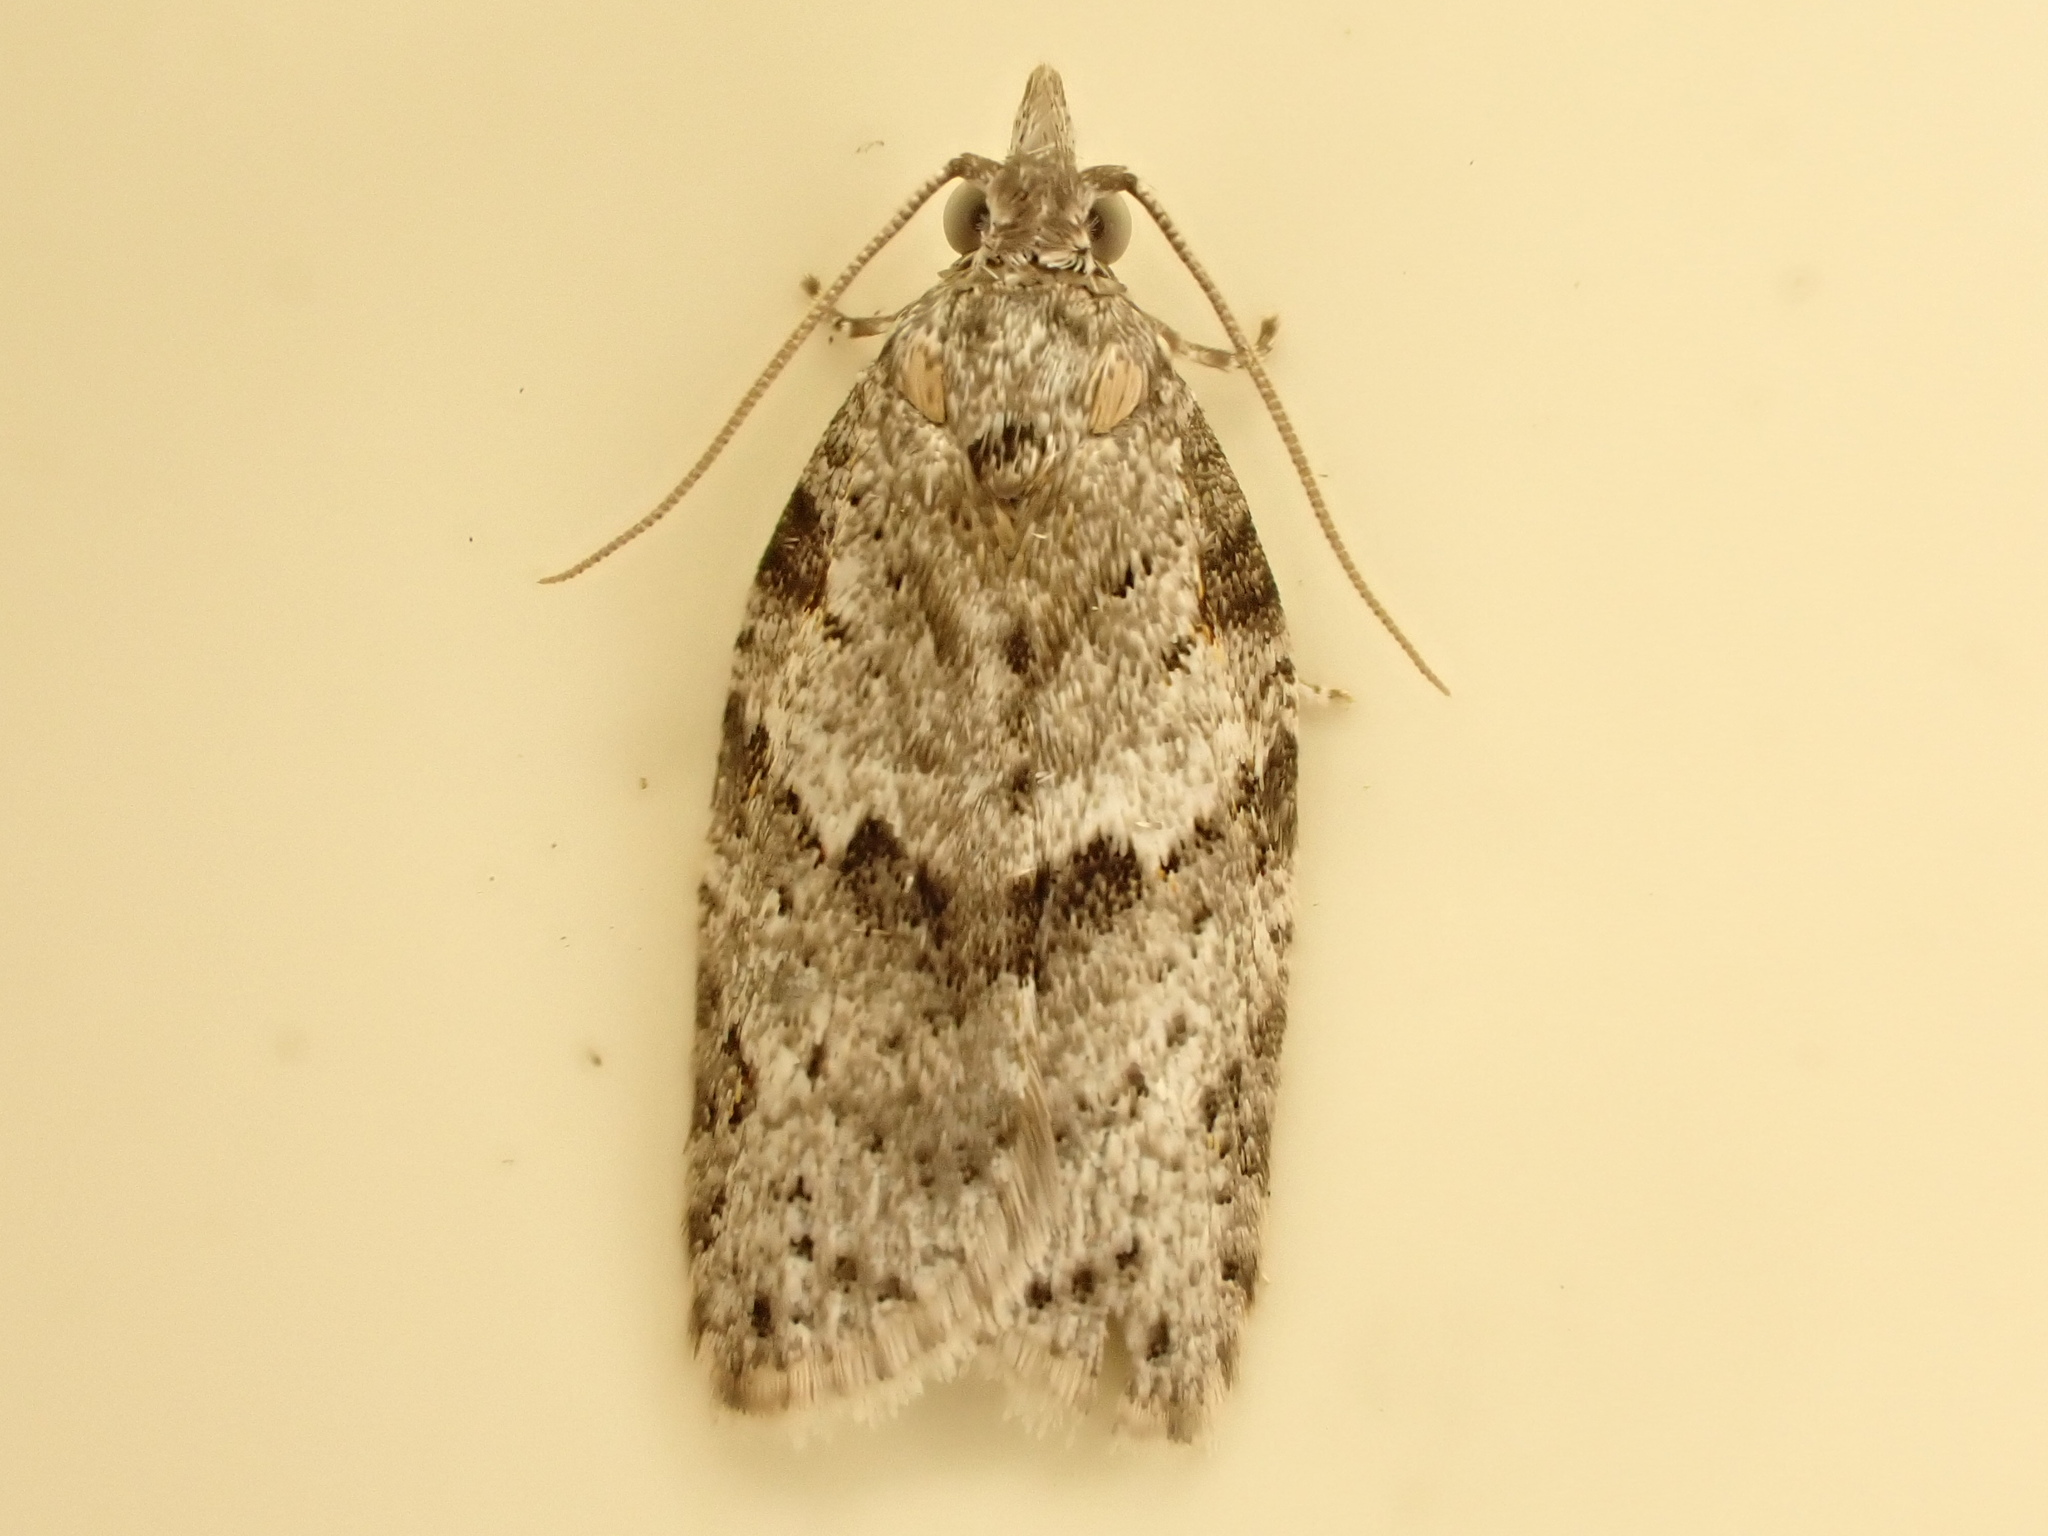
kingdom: Animalia
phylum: Arthropoda
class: Insecta
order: Lepidoptera
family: Tortricidae
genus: Isotenes
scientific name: Isotenes miserana
